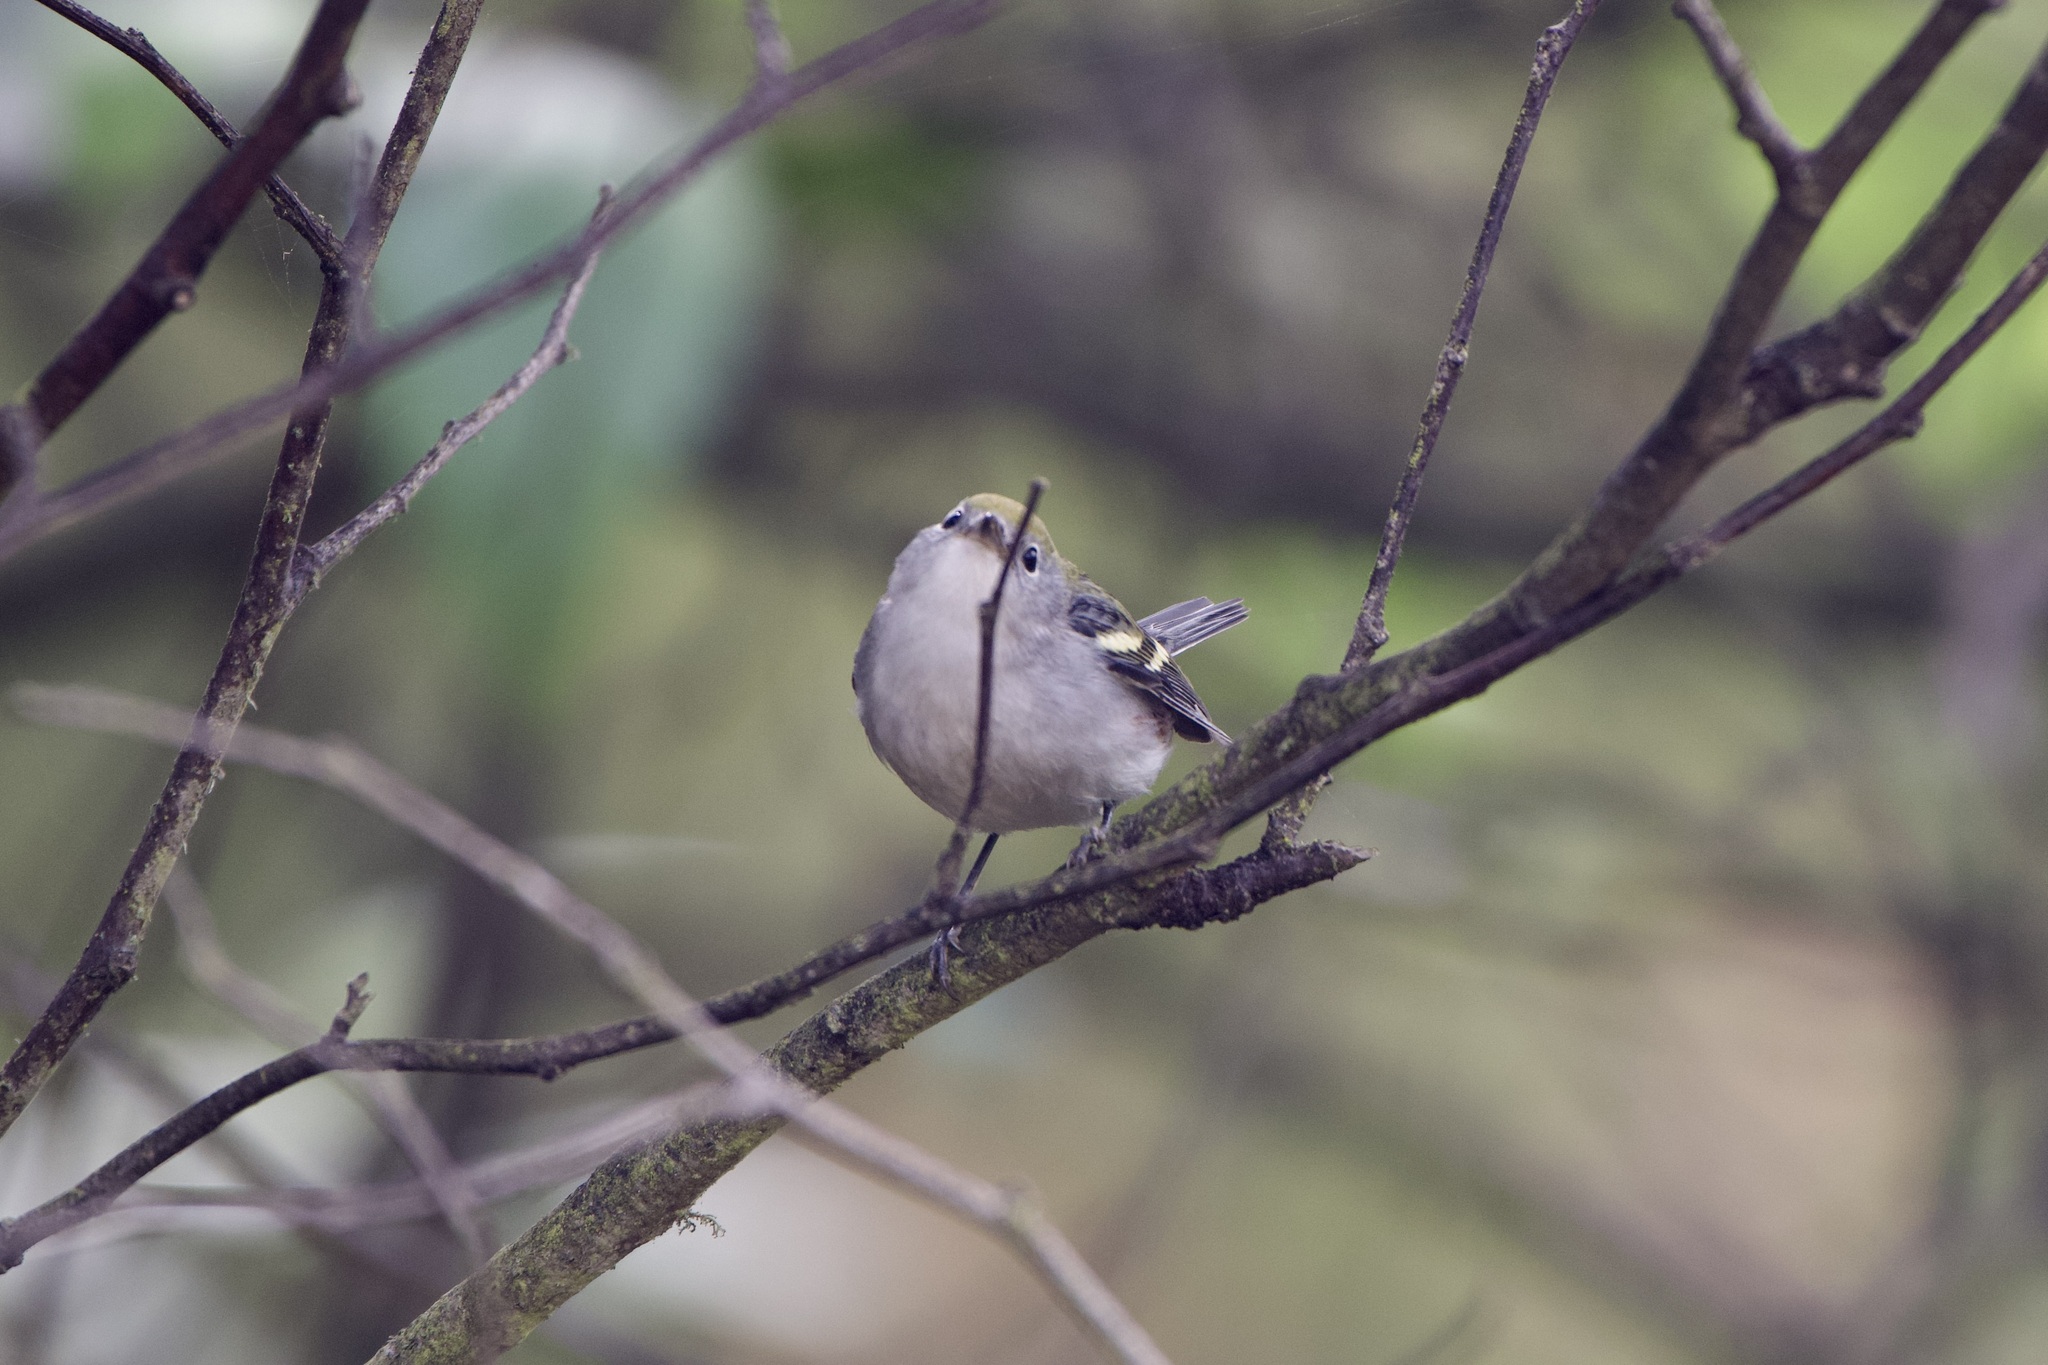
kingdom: Animalia
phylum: Chordata
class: Aves
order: Passeriformes
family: Parulidae
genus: Setophaga
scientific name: Setophaga pensylvanica
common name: Chestnut-sided warbler
